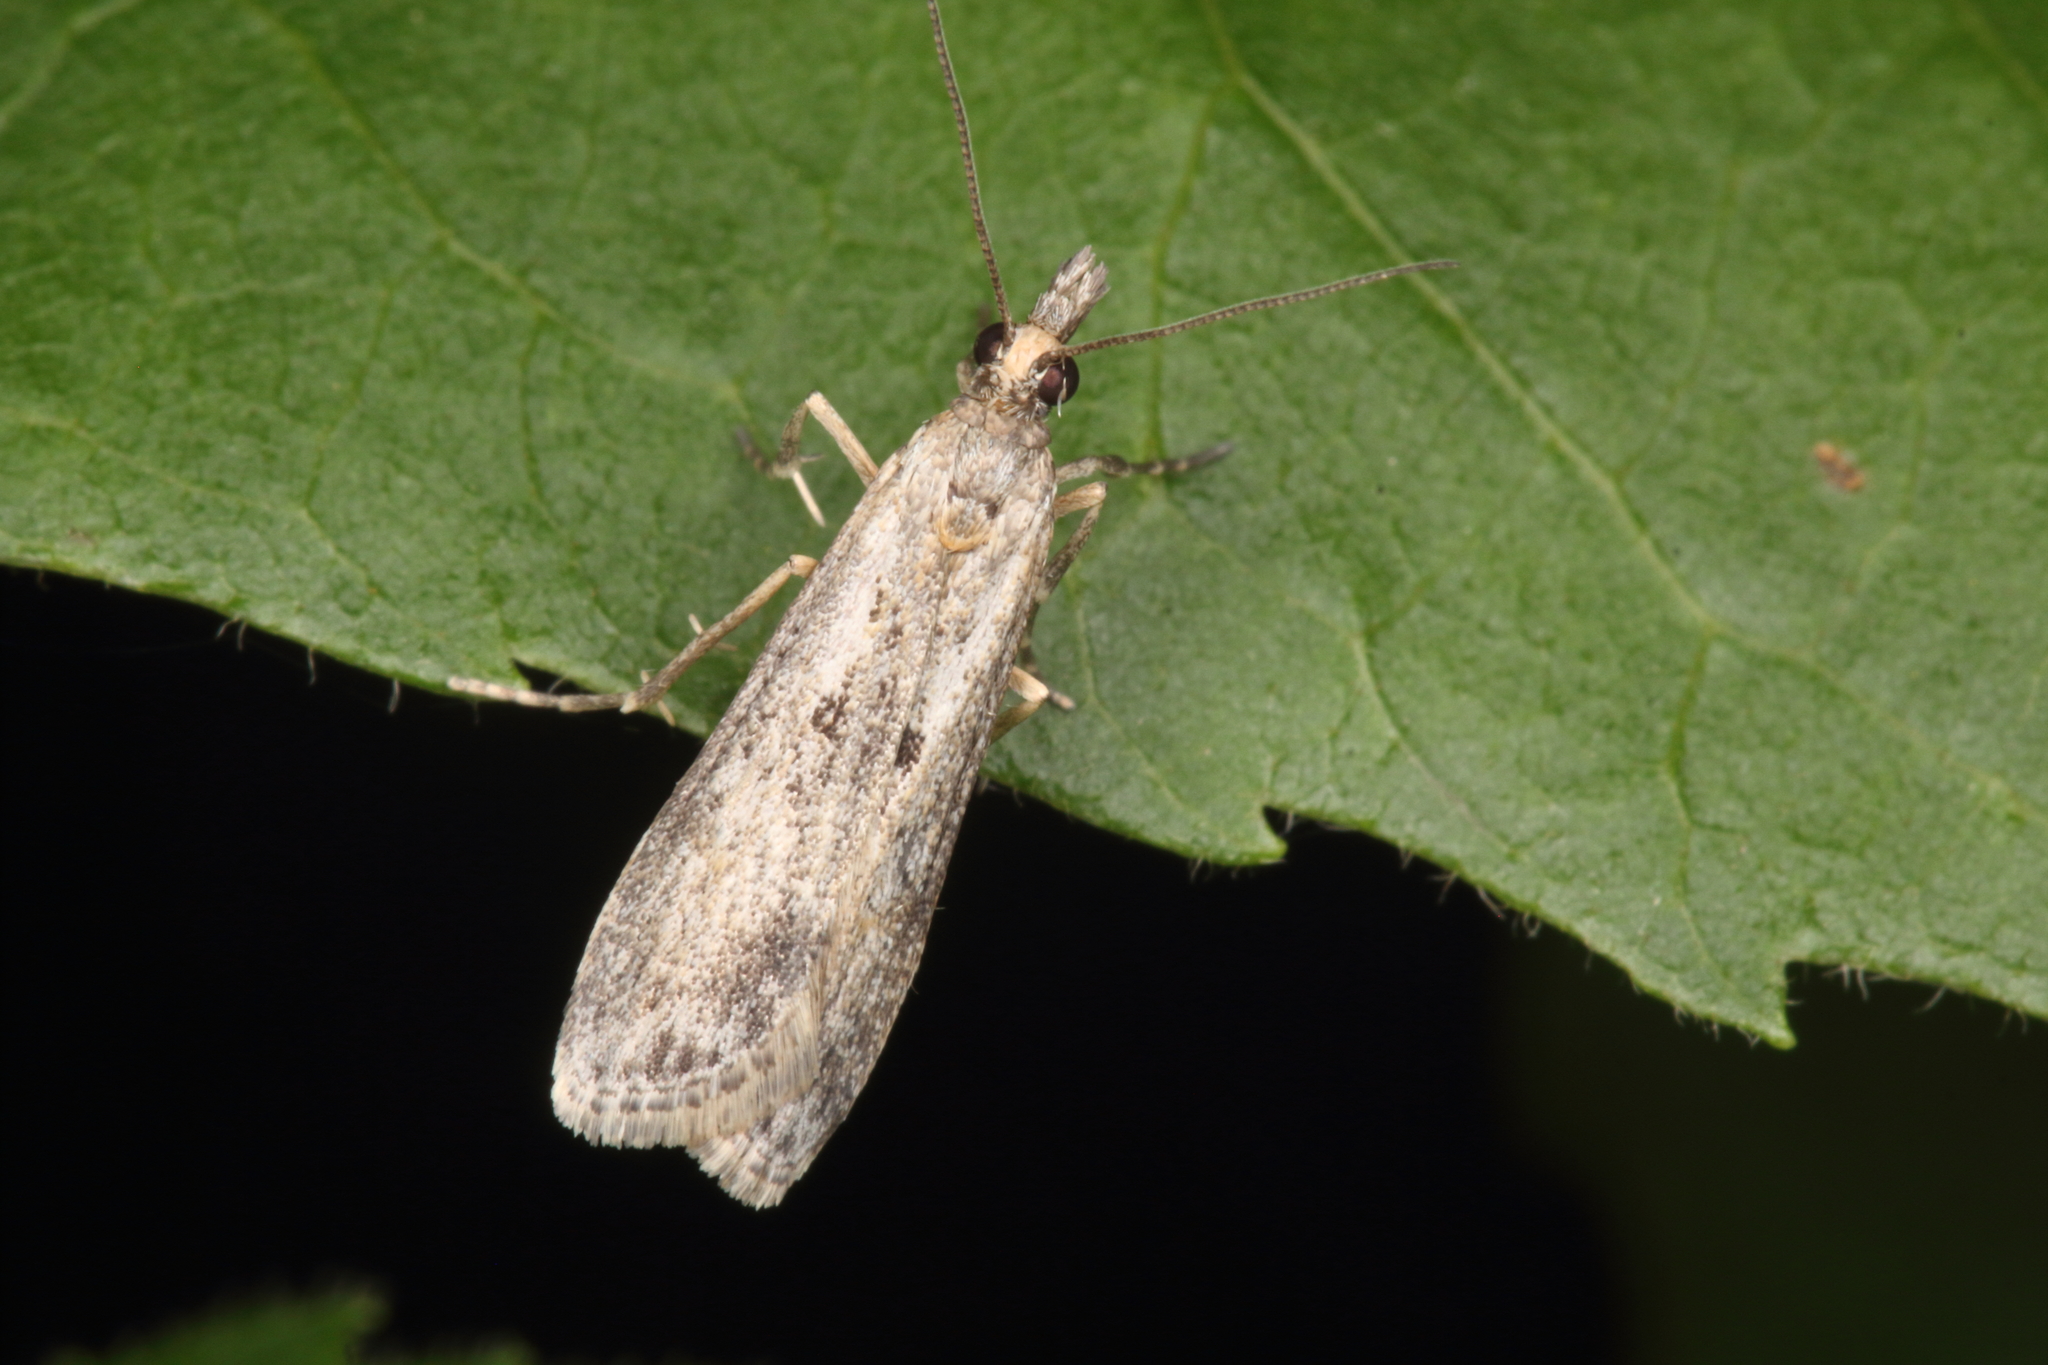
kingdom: Animalia
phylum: Arthropoda
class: Insecta
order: Lepidoptera
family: Crambidae
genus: Eudonia
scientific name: Eudonia leptalea
